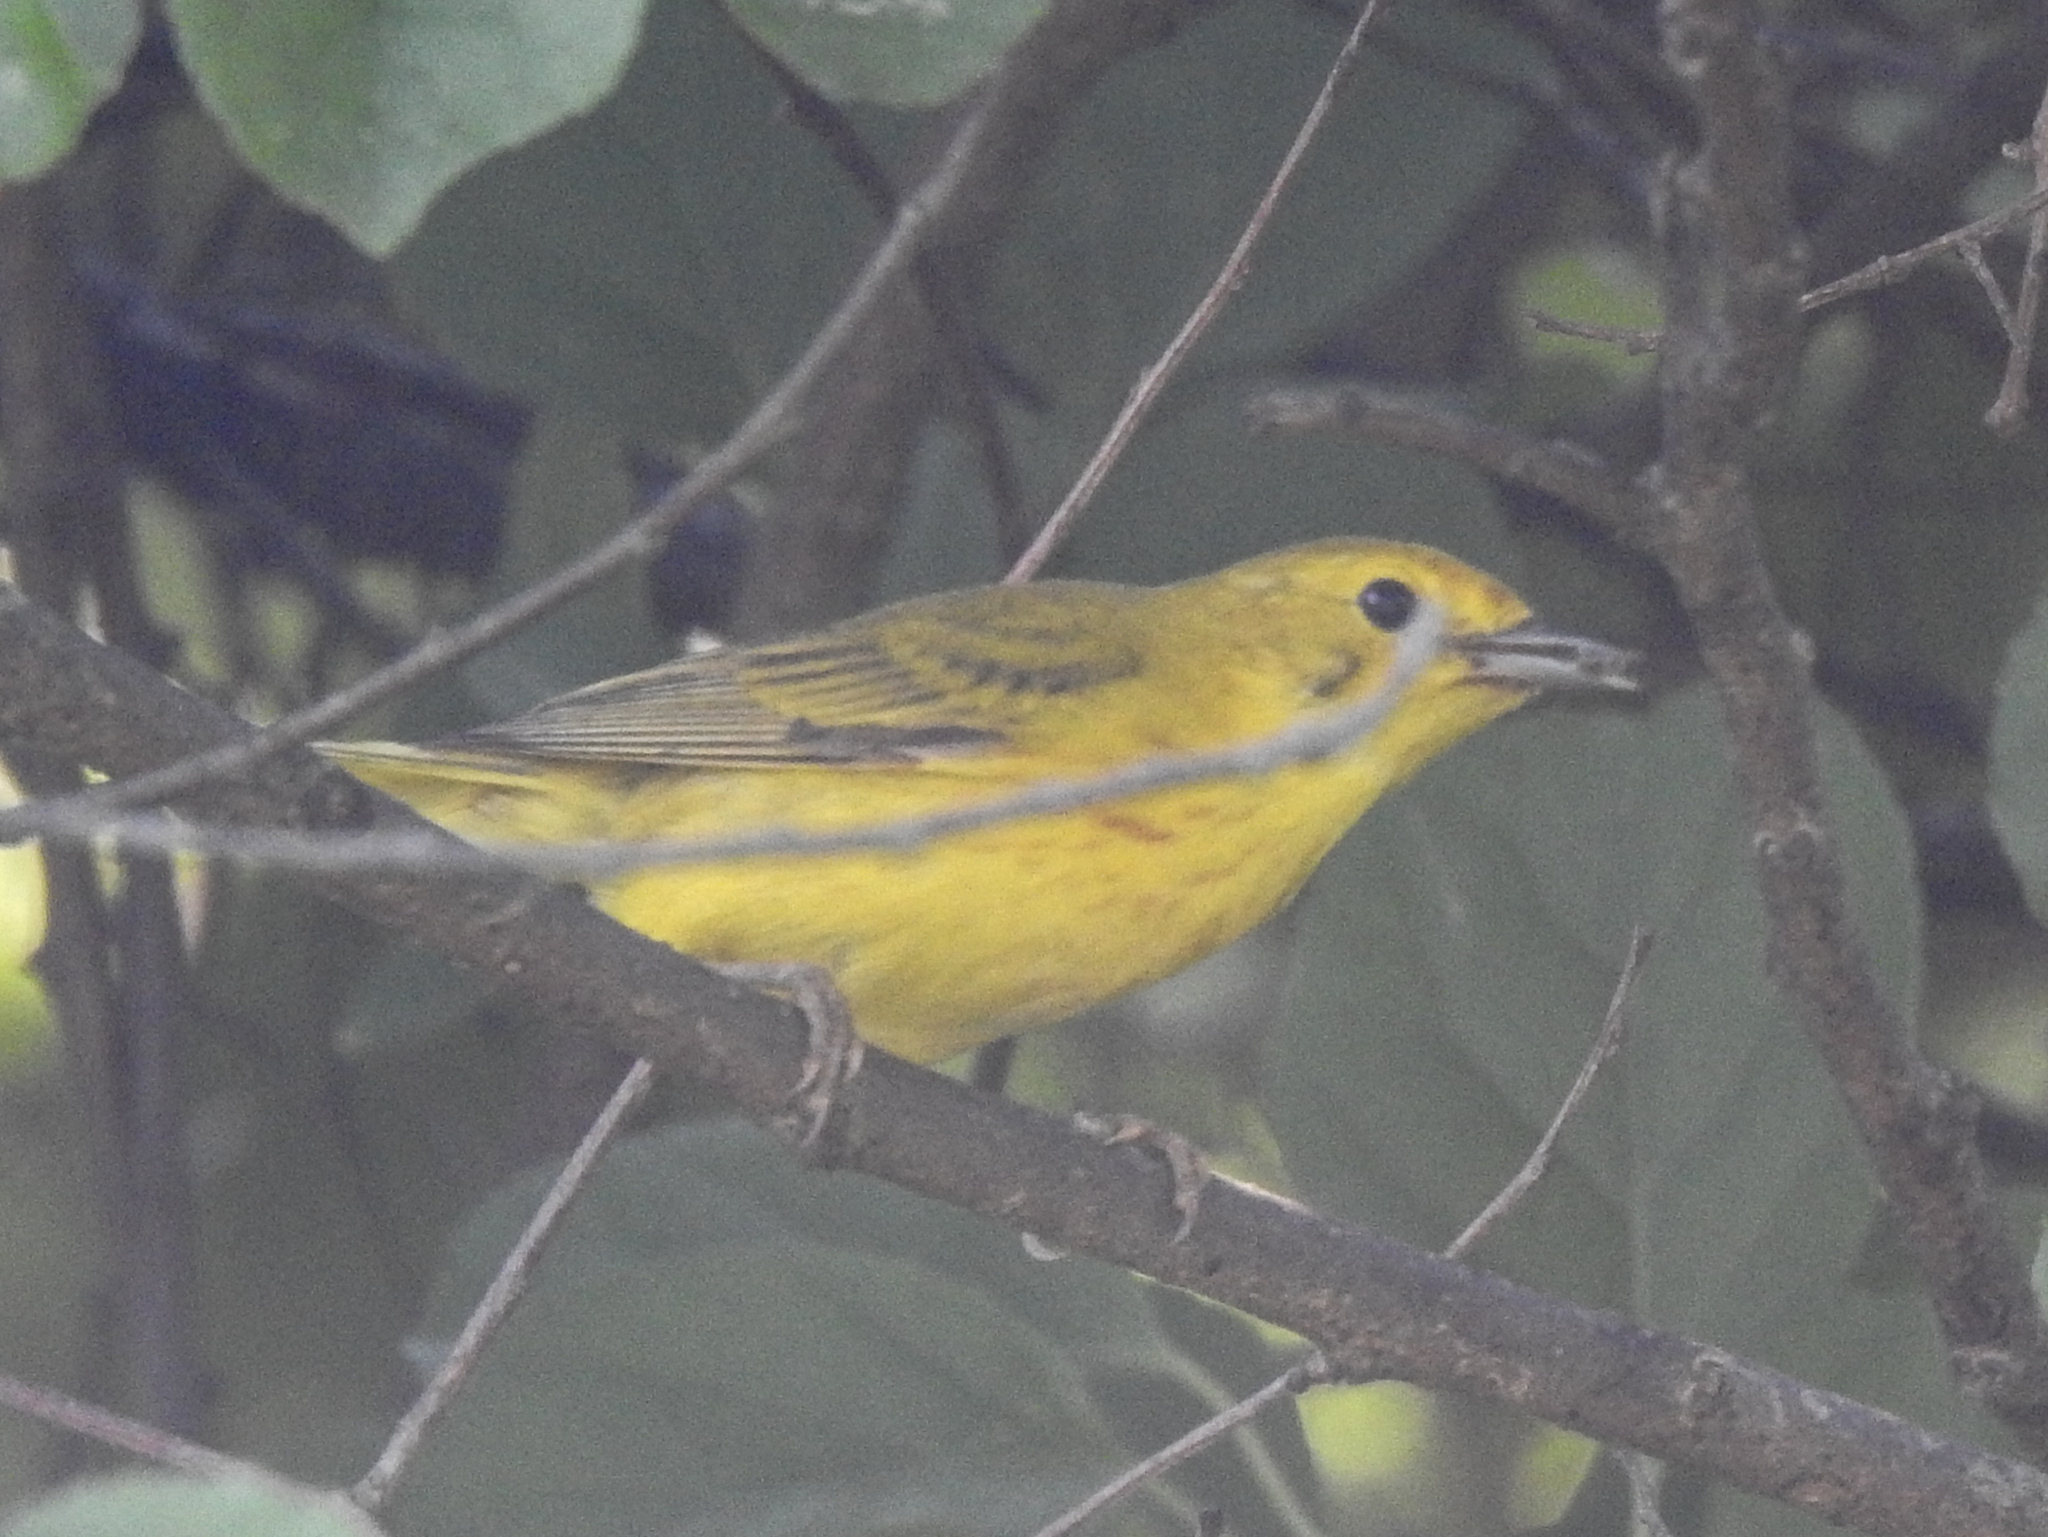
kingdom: Animalia
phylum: Chordata
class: Aves
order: Passeriformes
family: Parulidae
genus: Setophaga
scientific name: Setophaga petechia
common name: Yellow warbler
